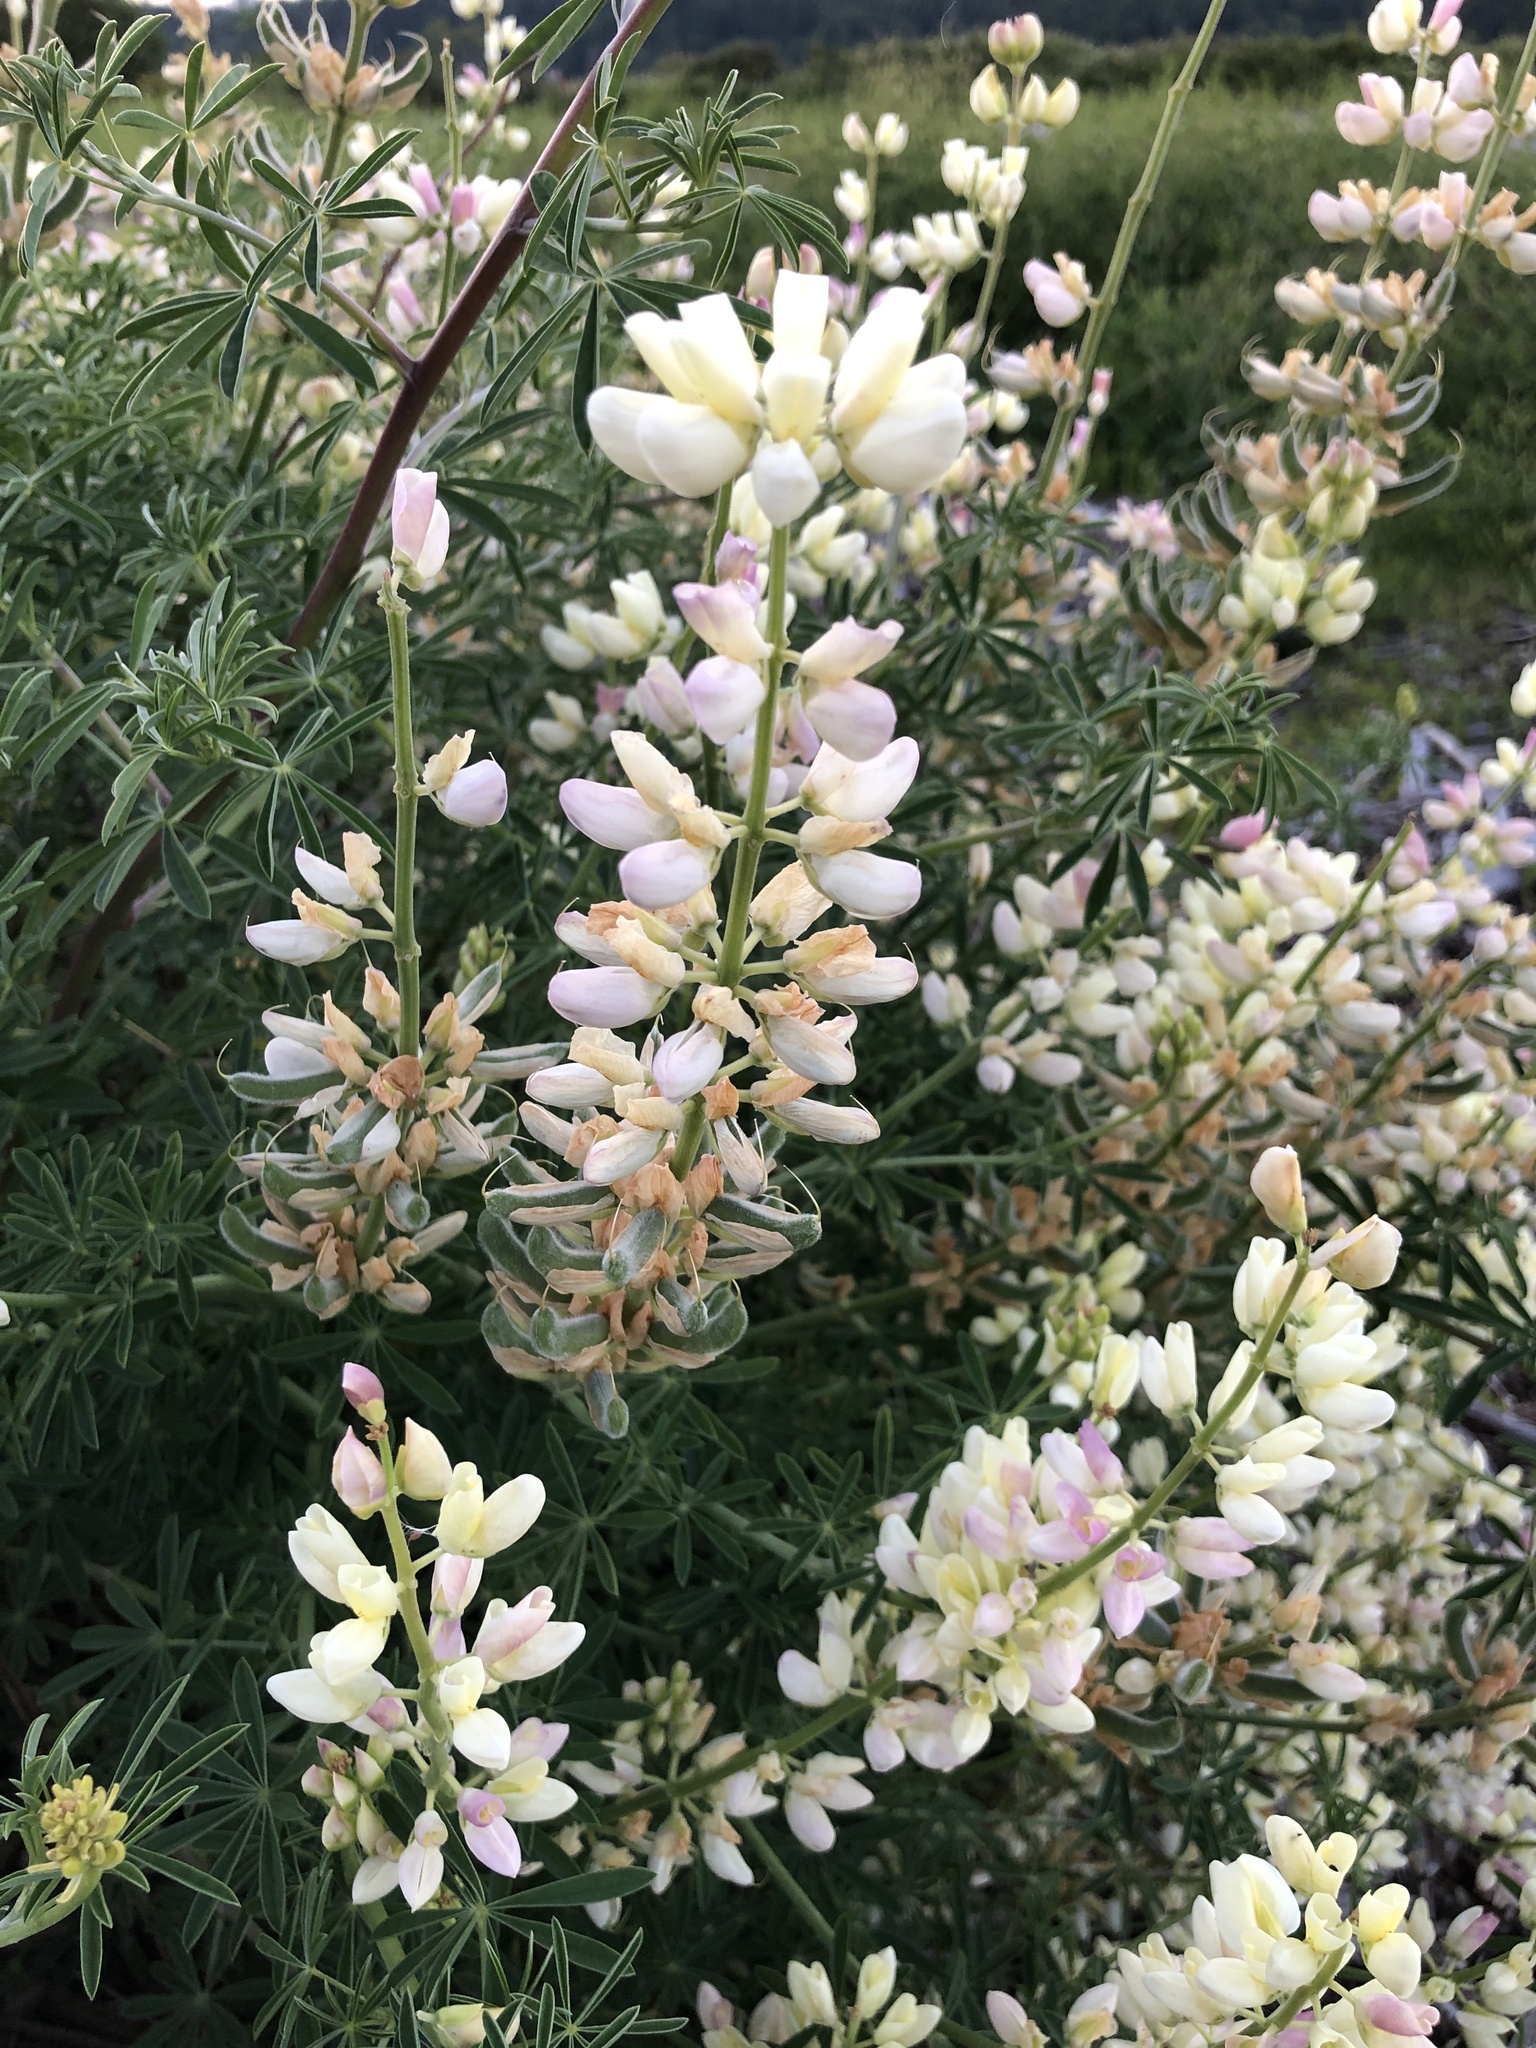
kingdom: Plantae
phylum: Tracheophyta
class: Magnoliopsida
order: Fabales
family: Fabaceae
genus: Lupinus
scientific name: Lupinus arboreus
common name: Yellow bush lupine
